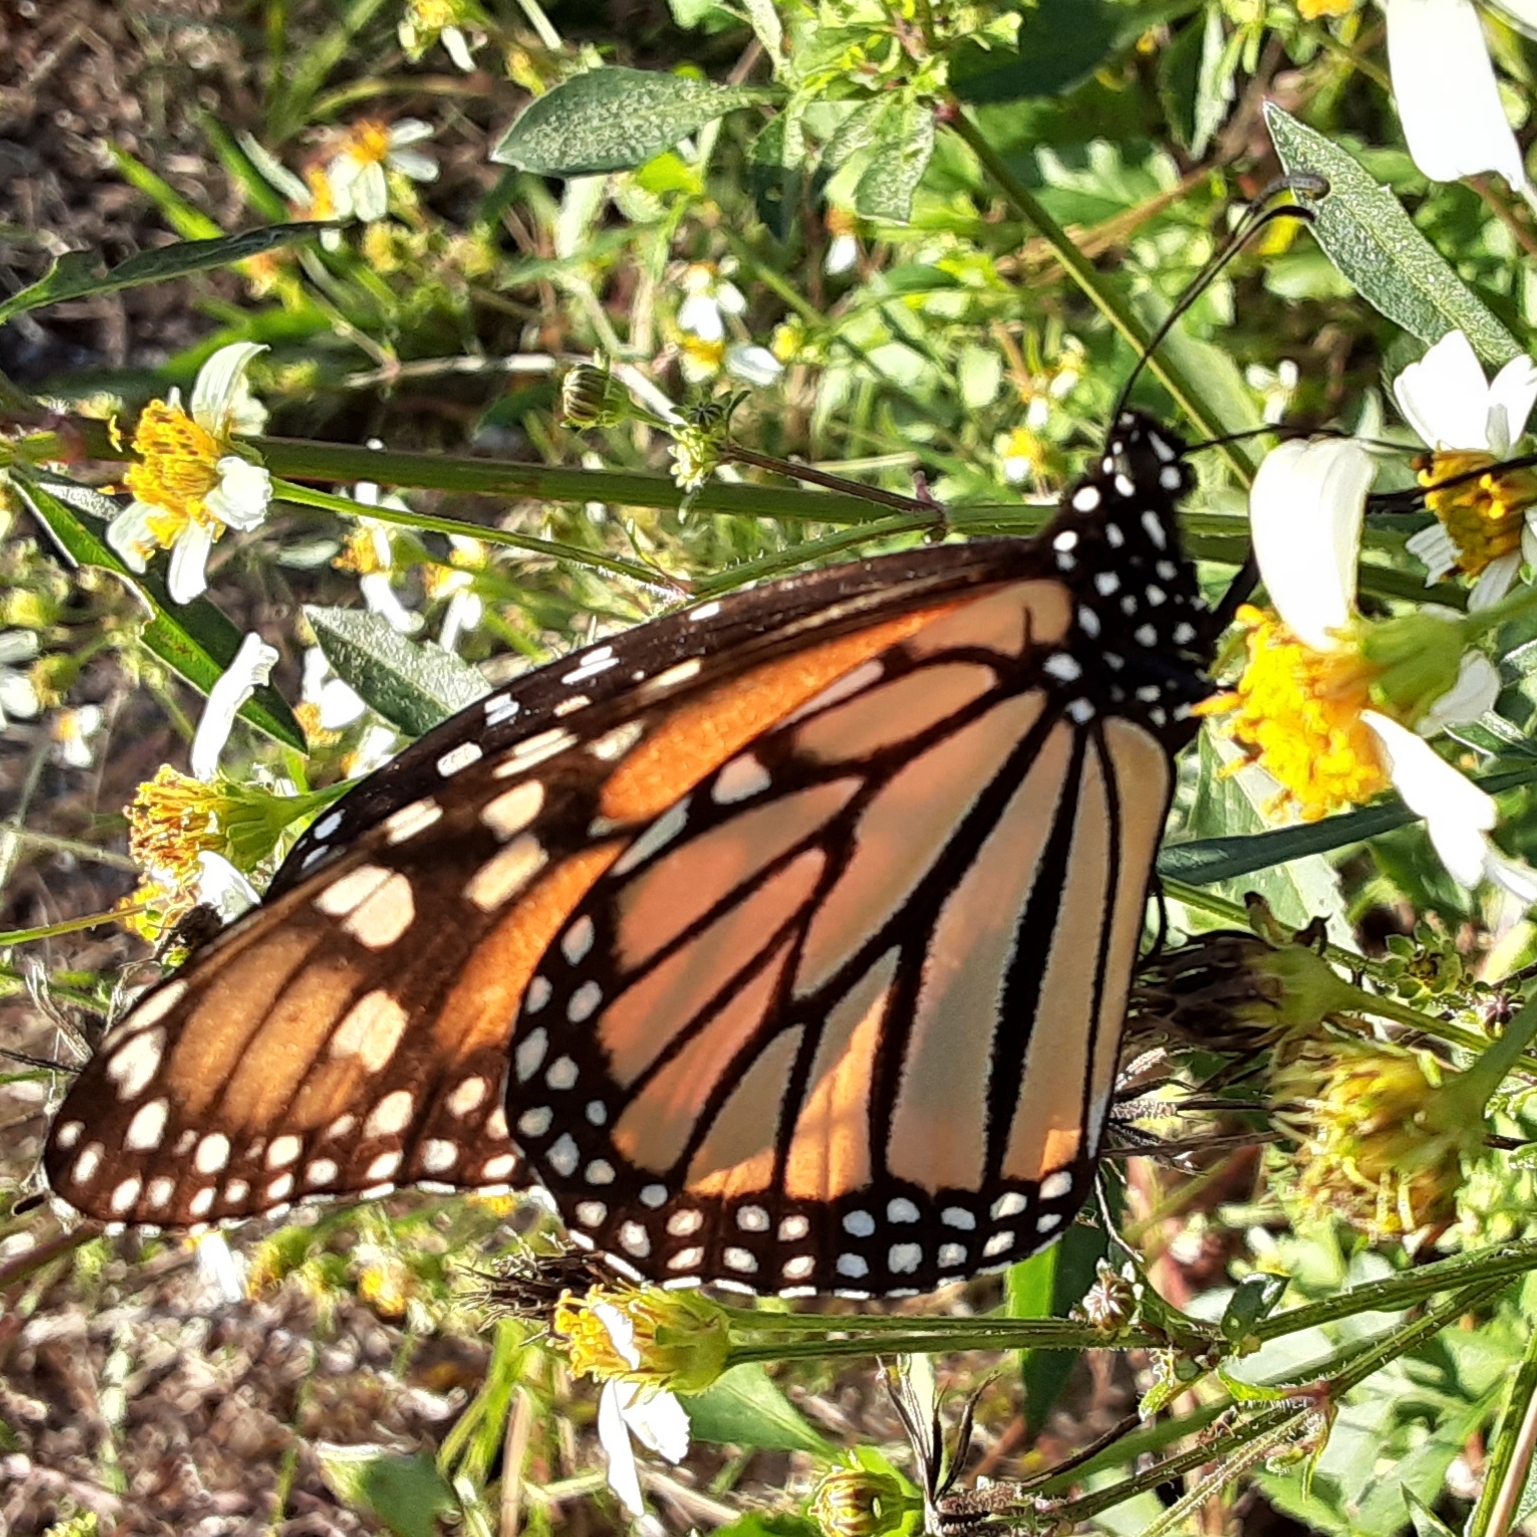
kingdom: Animalia
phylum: Arthropoda
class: Insecta
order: Lepidoptera
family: Nymphalidae
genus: Danaus
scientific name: Danaus plexippus
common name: Monarch
